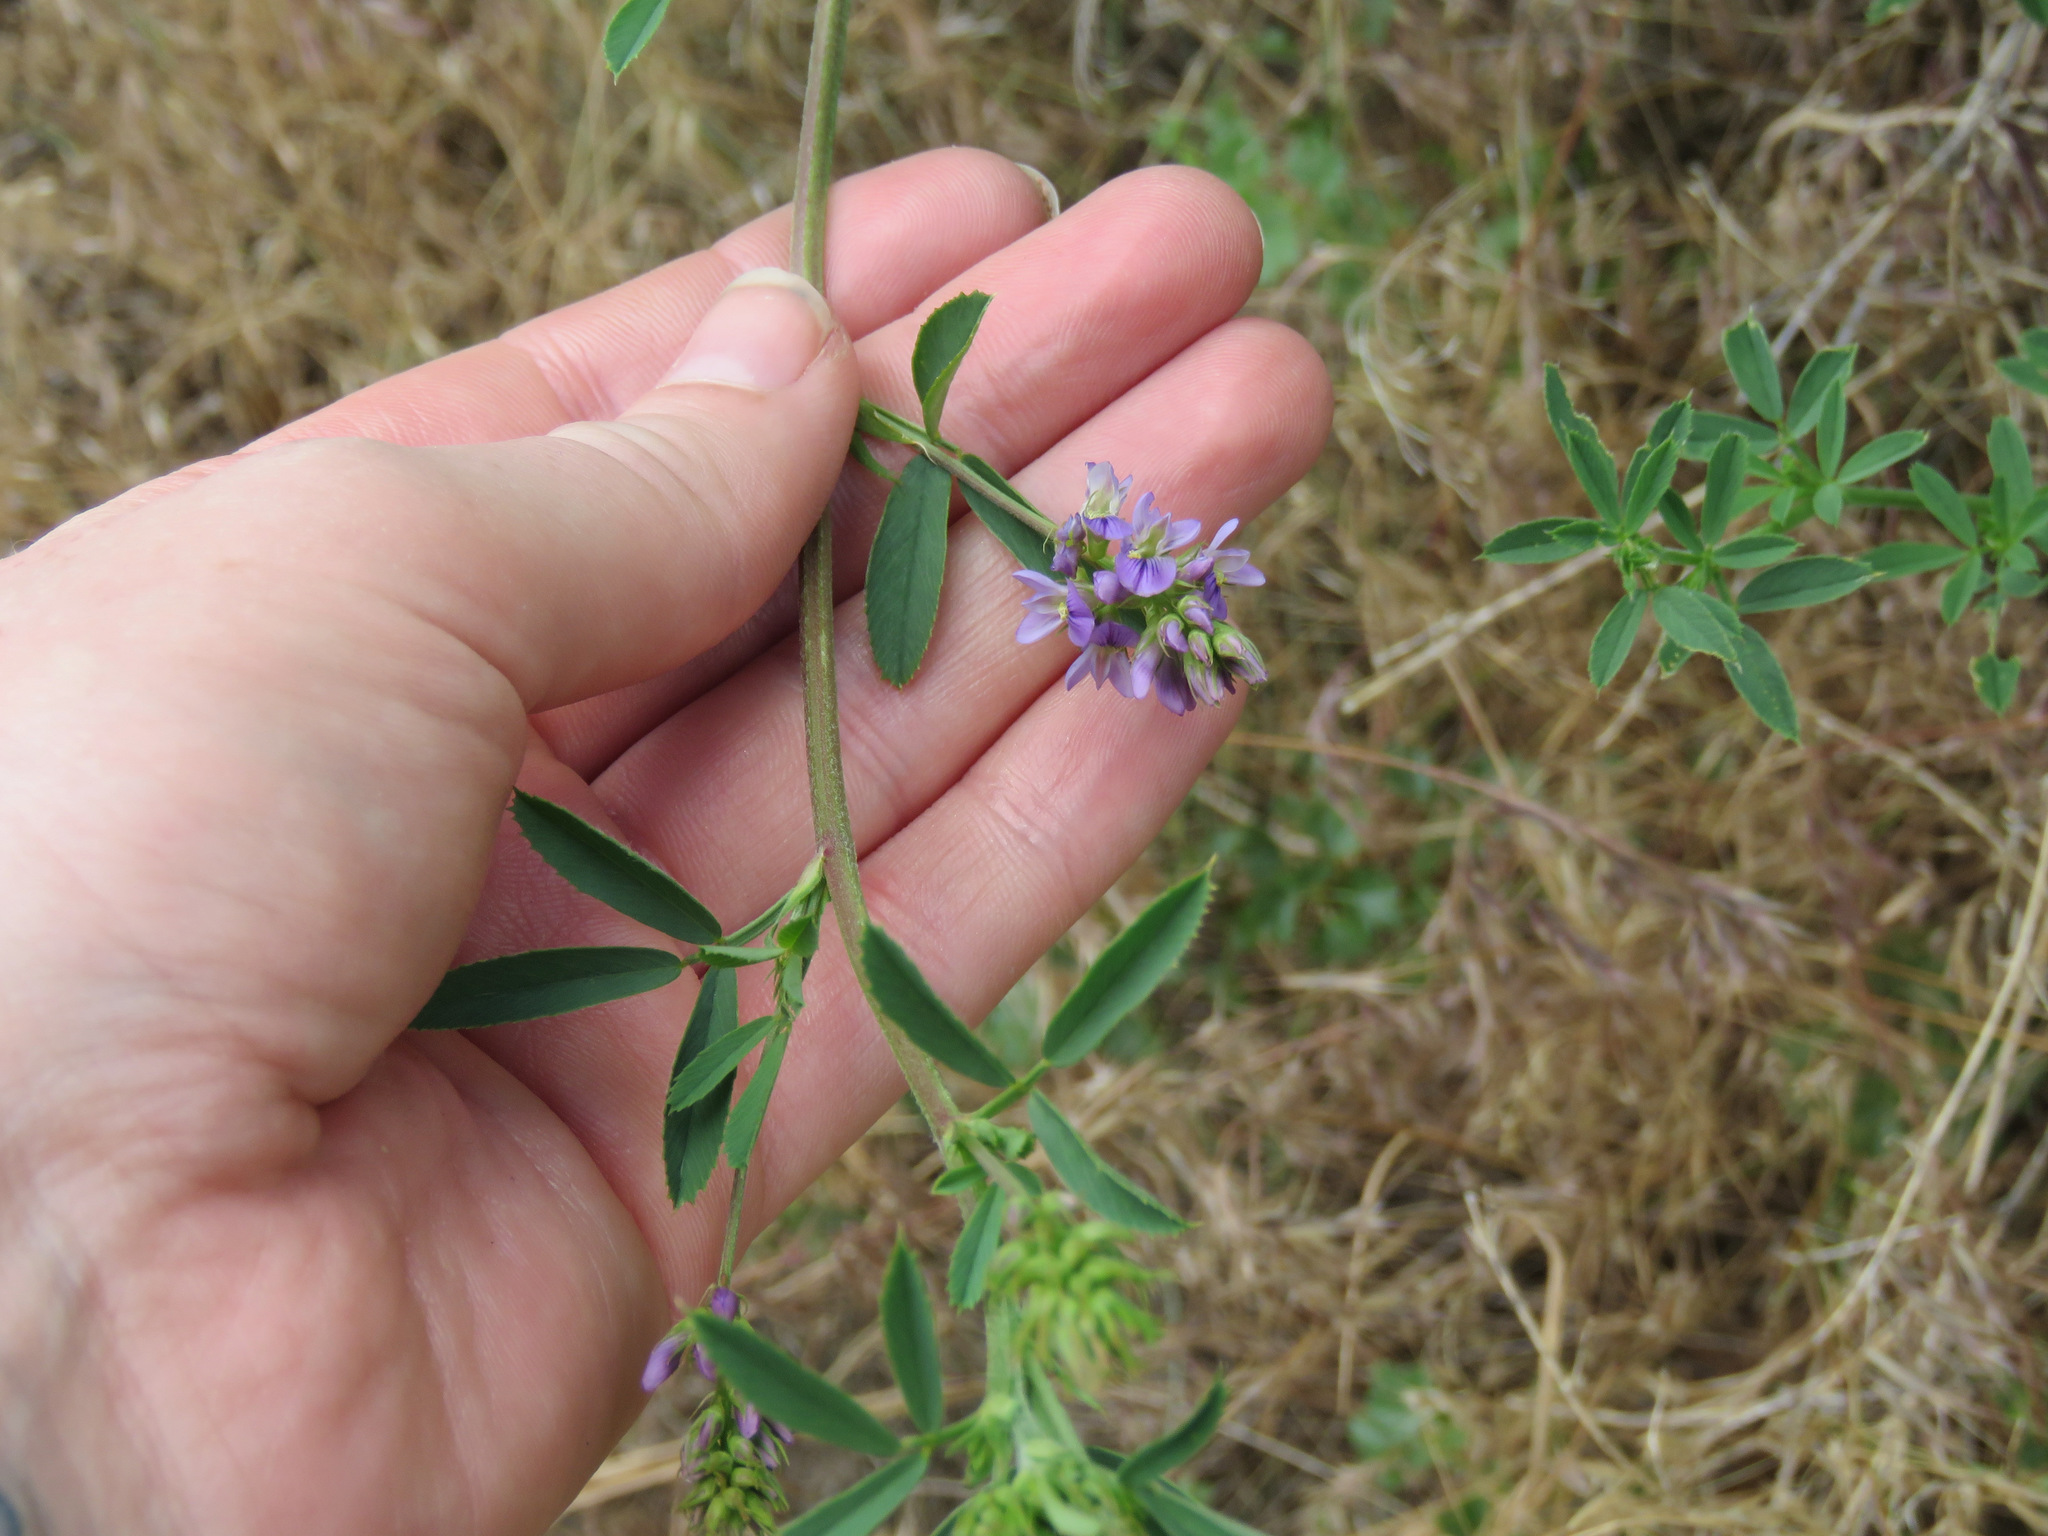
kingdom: Plantae
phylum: Tracheophyta
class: Magnoliopsida
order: Fabales
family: Fabaceae
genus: Medicago
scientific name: Medicago sativa
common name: Alfalfa
